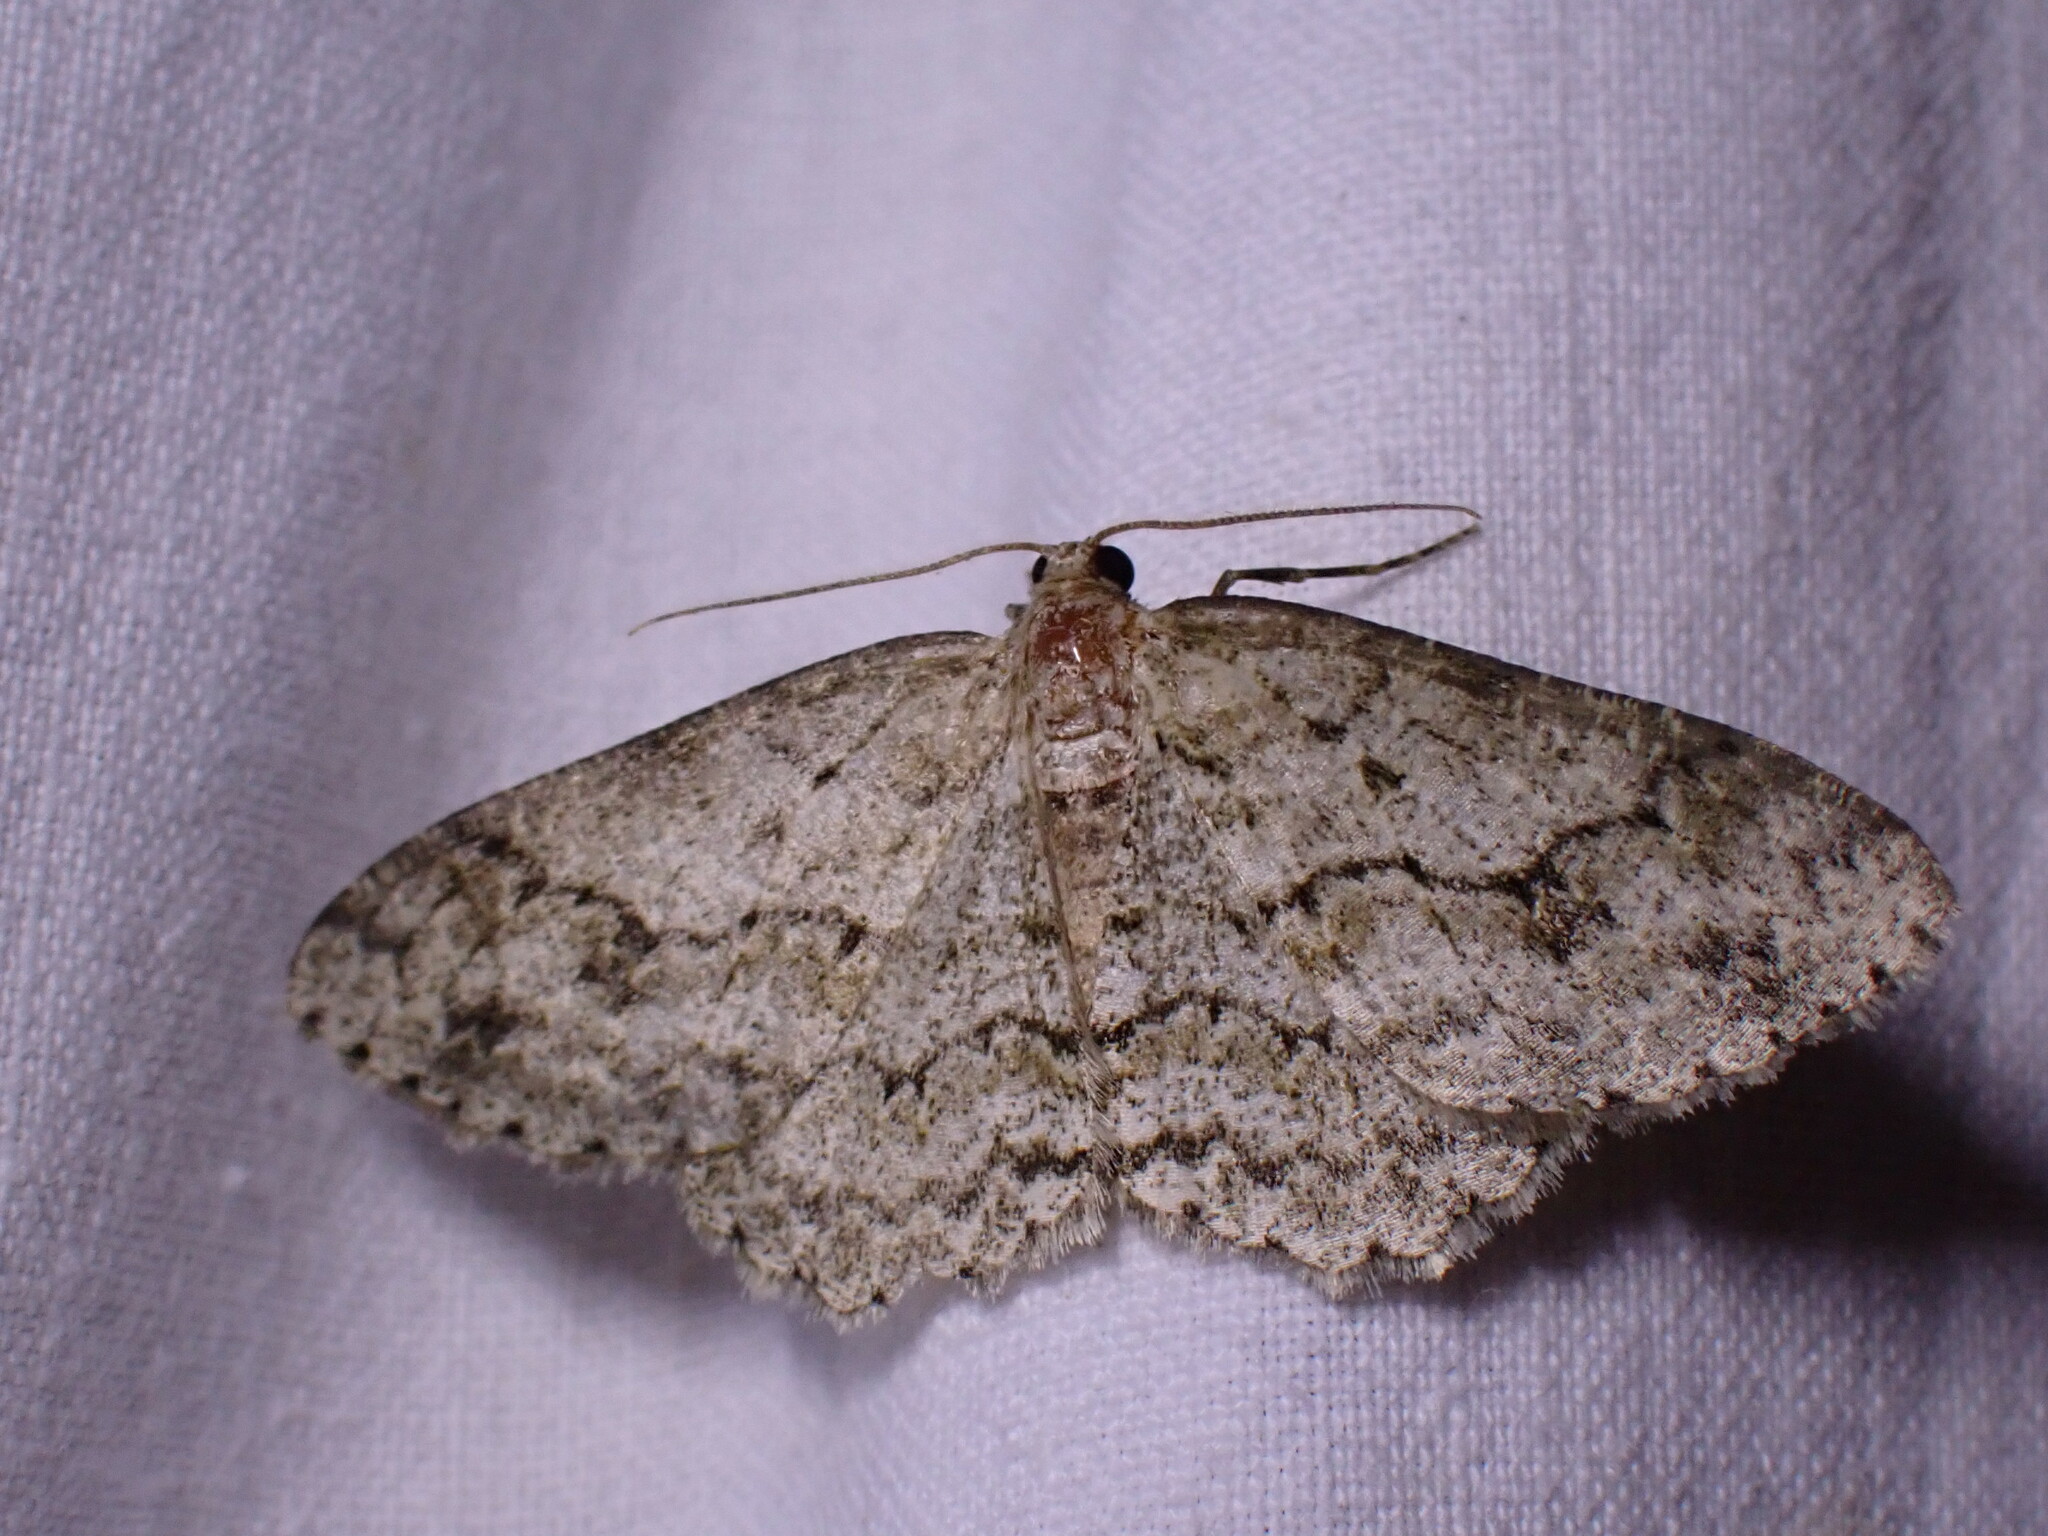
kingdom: Animalia
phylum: Arthropoda
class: Insecta
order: Lepidoptera
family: Geometridae
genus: Ectropis
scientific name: Ectropis crepuscularia
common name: Engrailed
